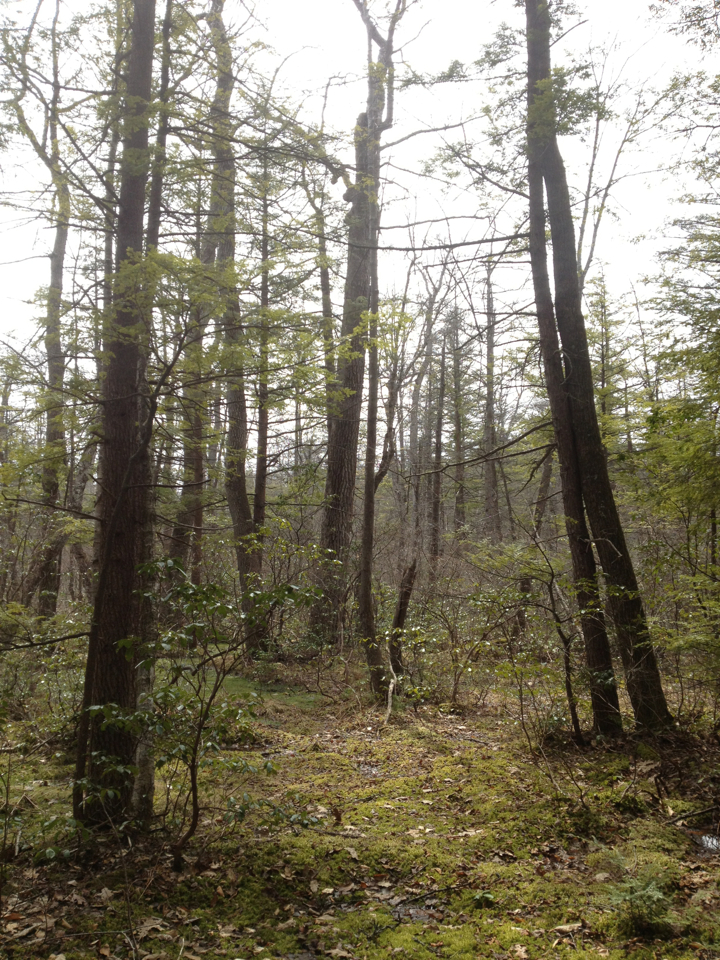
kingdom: Plantae
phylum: Tracheophyta
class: Magnoliopsida
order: Cornales
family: Nyssaceae
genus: Nyssa
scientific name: Nyssa sylvatica
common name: Black tupelo
